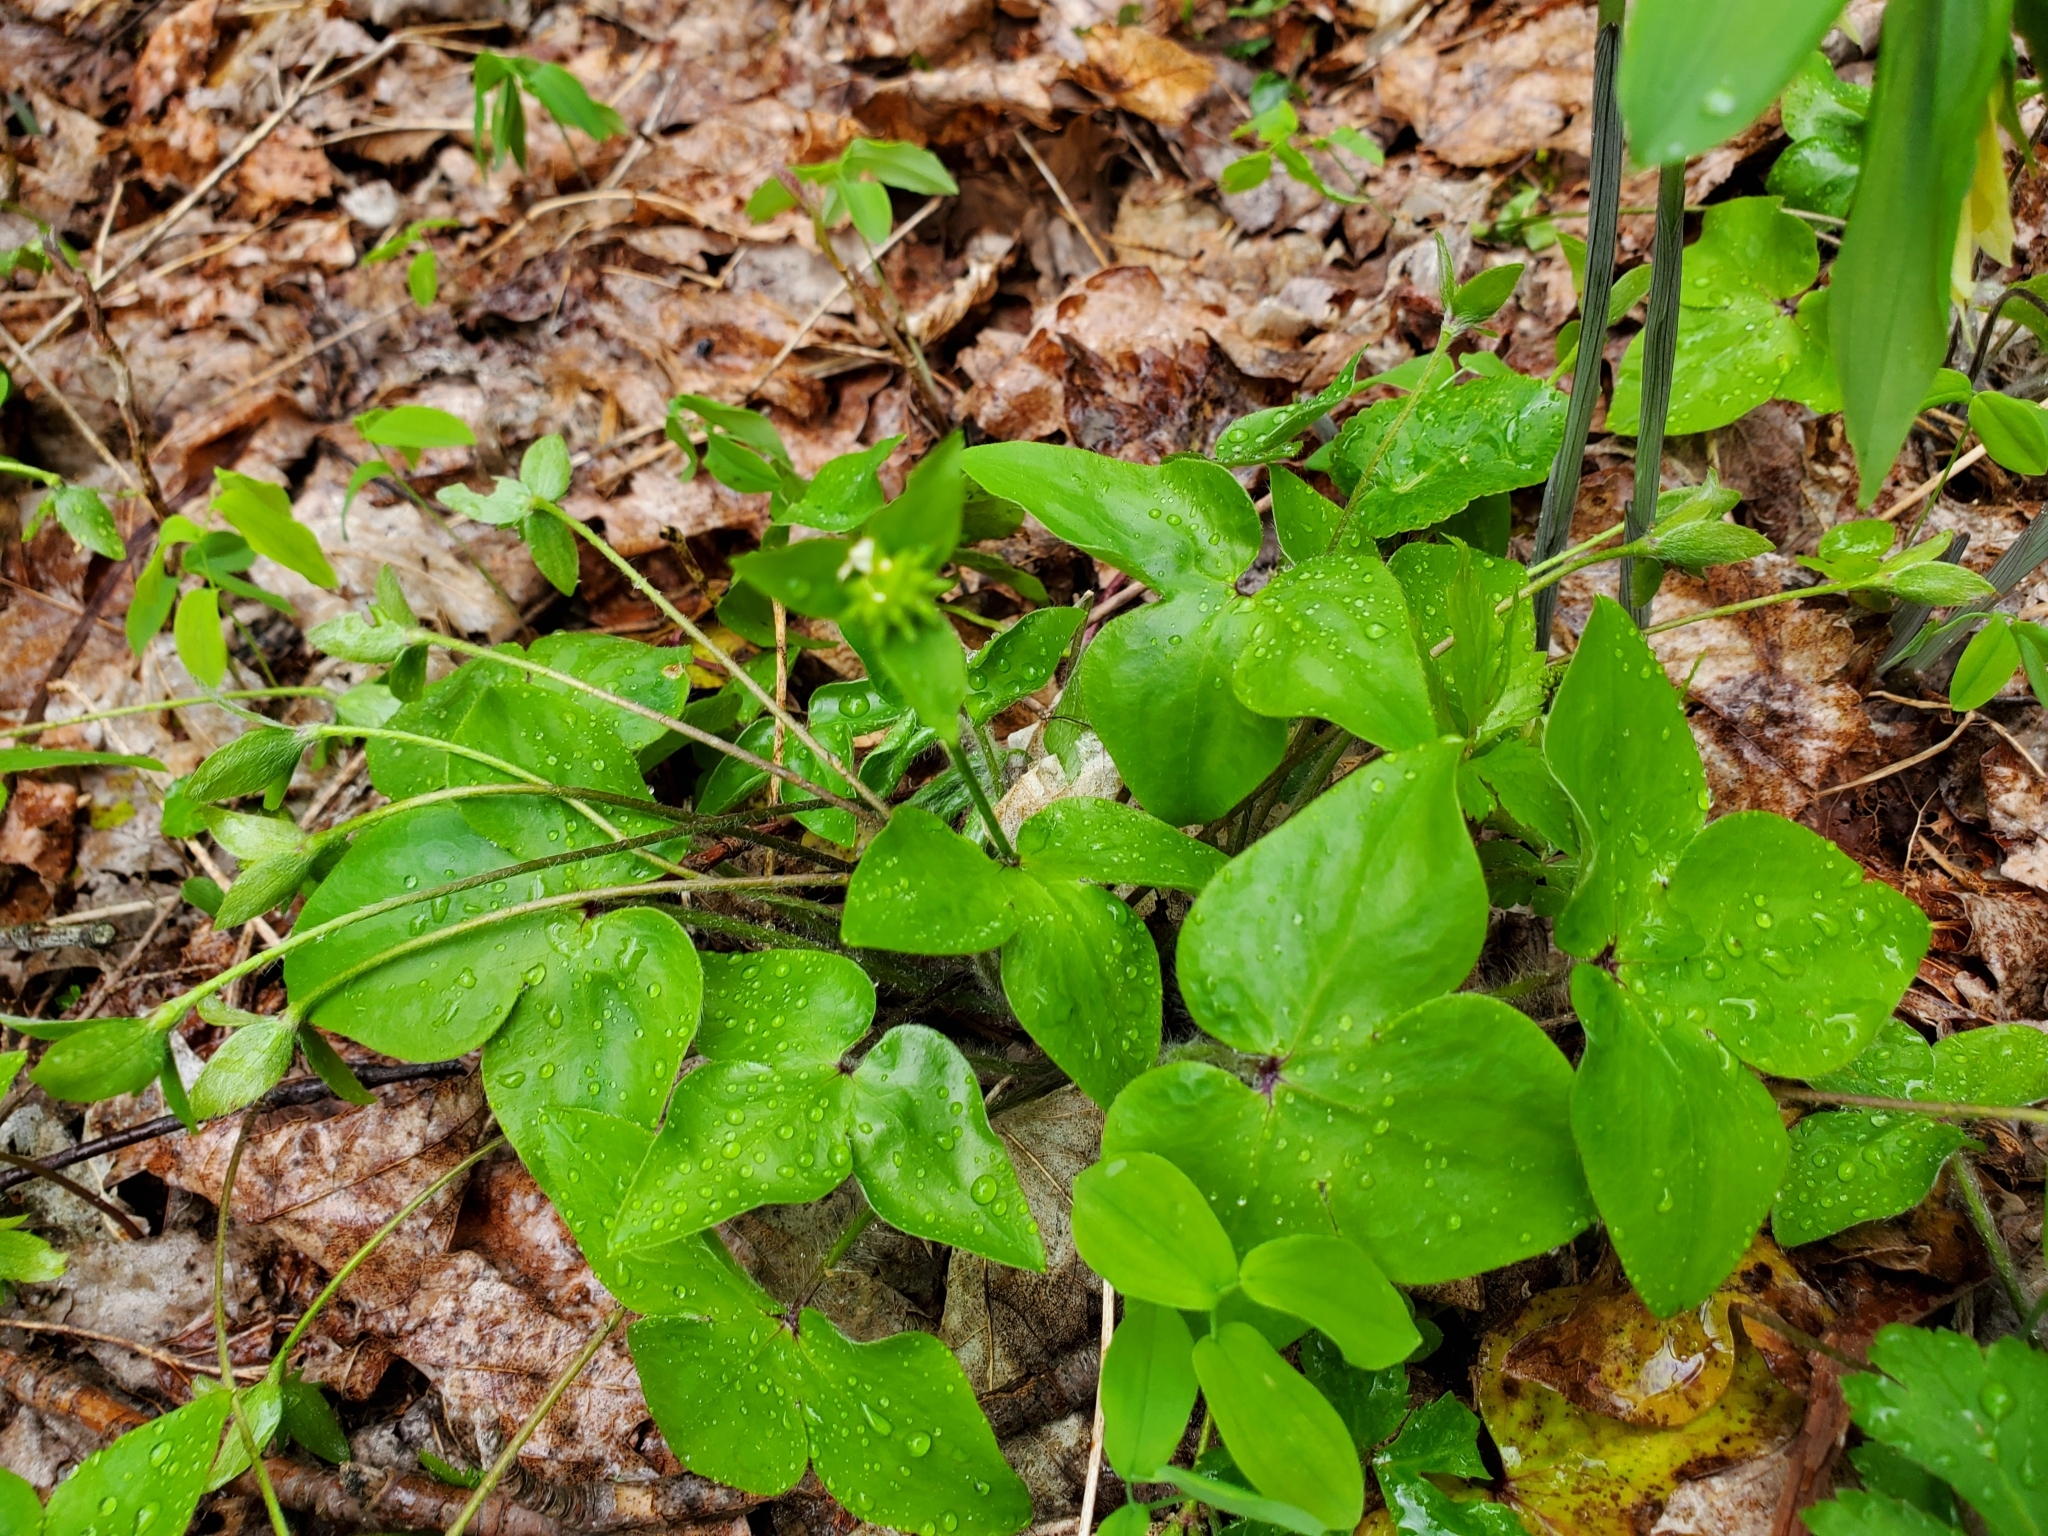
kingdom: Plantae
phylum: Tracheophyta
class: Magnoliopsida
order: Ranunculales
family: Ranunculaceae
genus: Hepatica
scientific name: Hepatica acutiloba
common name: Sharp-lobed hepatica
